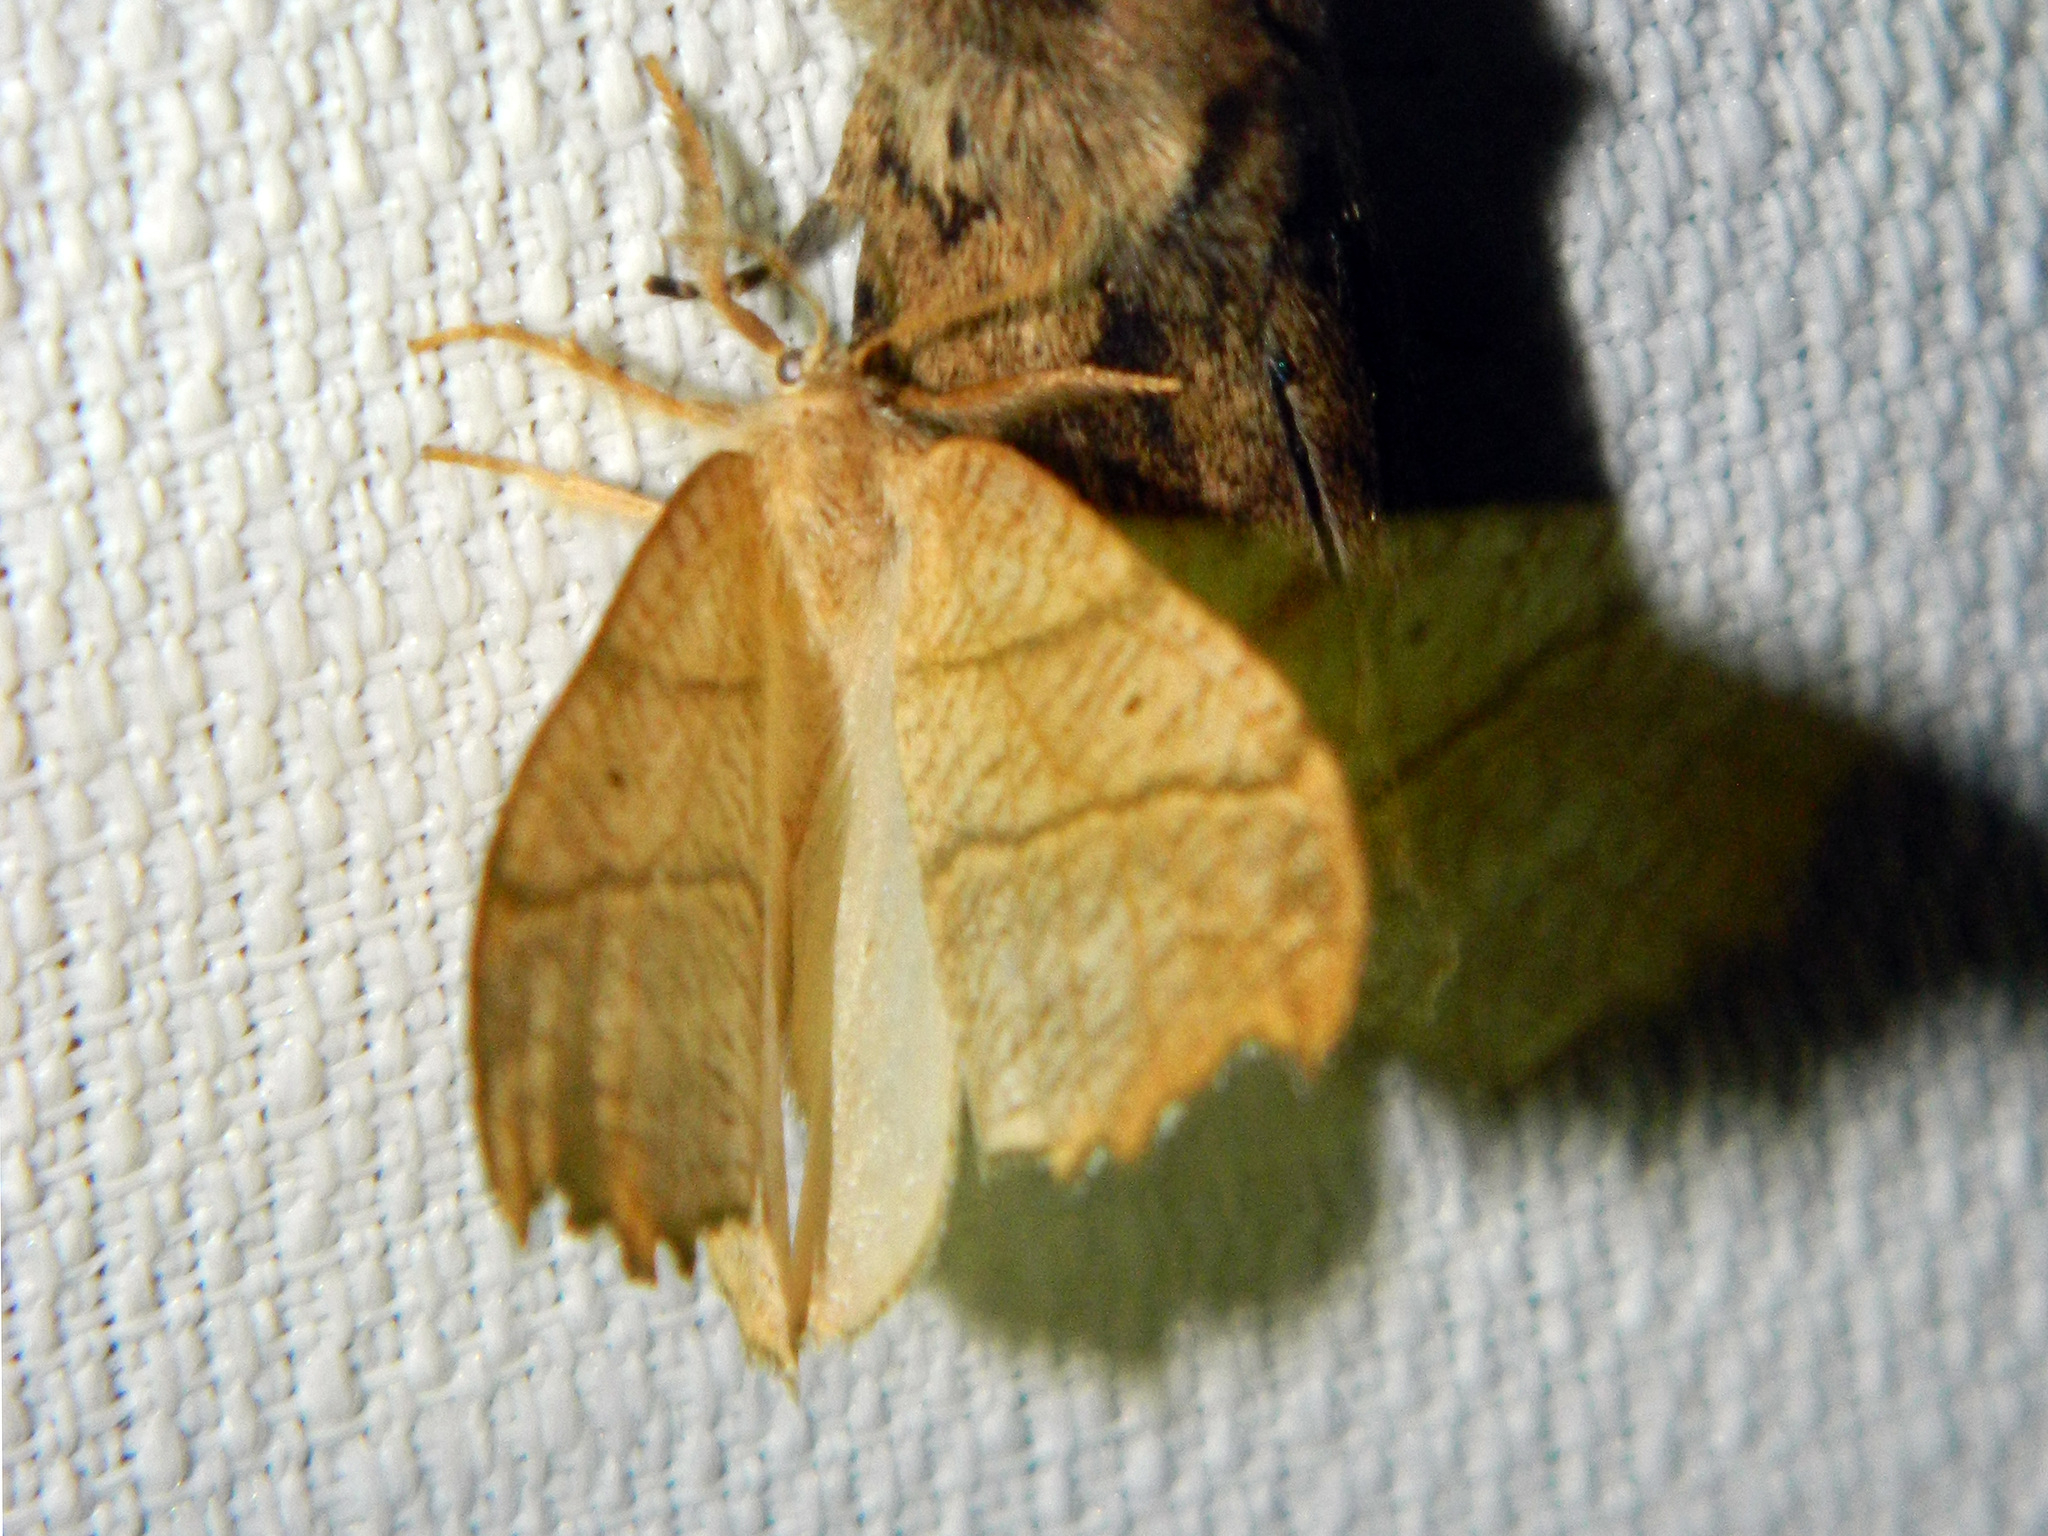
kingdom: Animalia
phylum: Arthropoda
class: Insecta
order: Lepidoptera
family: Drepanidae
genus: Falcaria
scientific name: Falcaria bilineata
